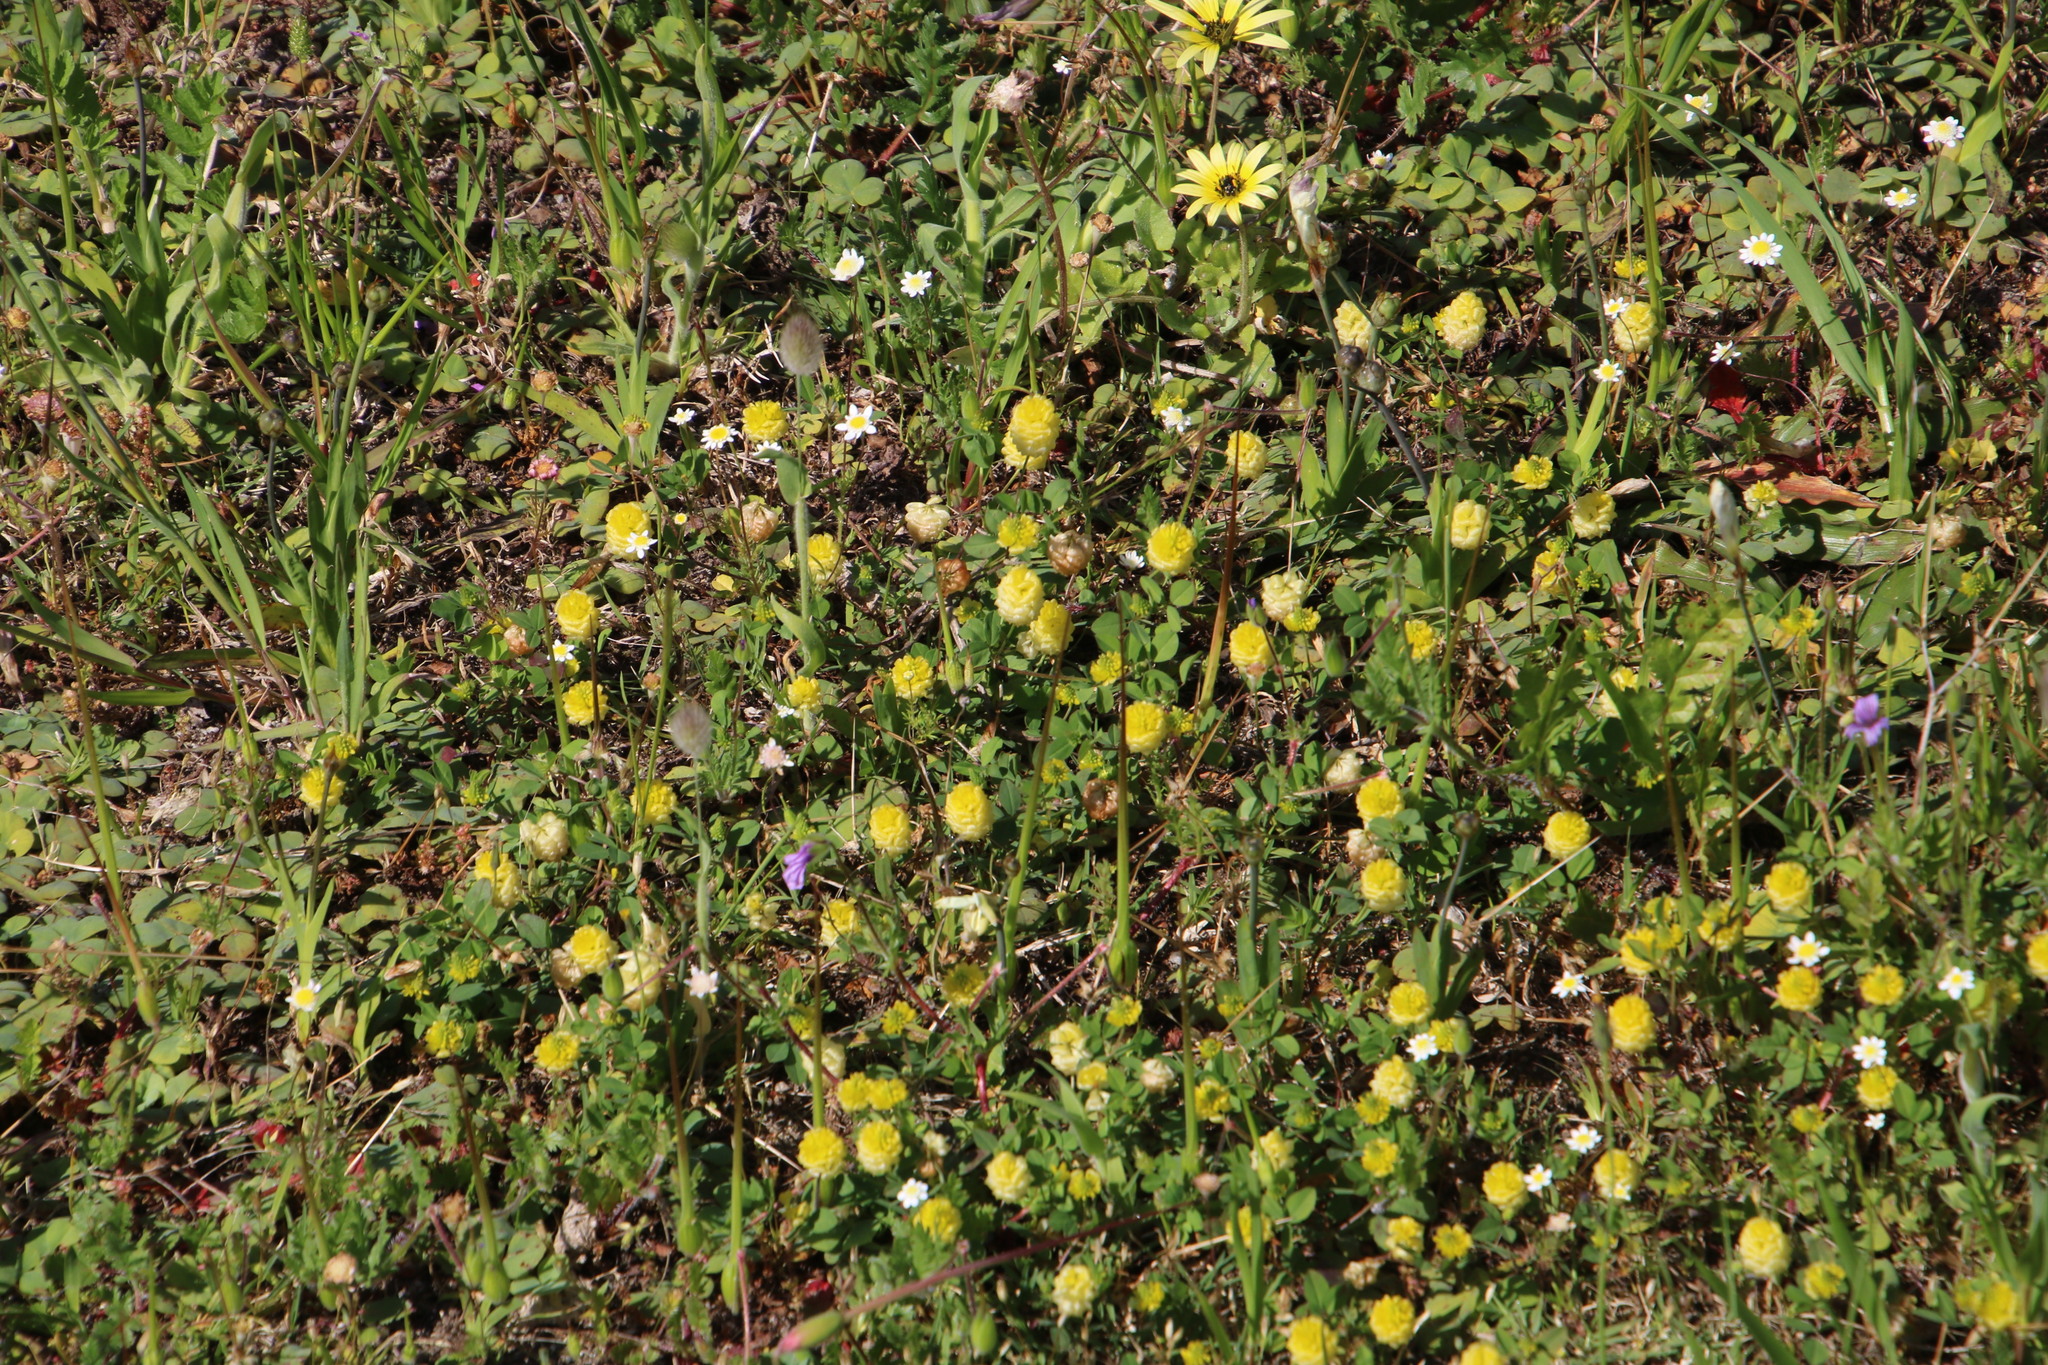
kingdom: Plantae
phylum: Tracheophyta
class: Magnoliopsida
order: Fabales
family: Fabaceae
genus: Trifolium
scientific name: Trifolium campestre
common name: Field clover
